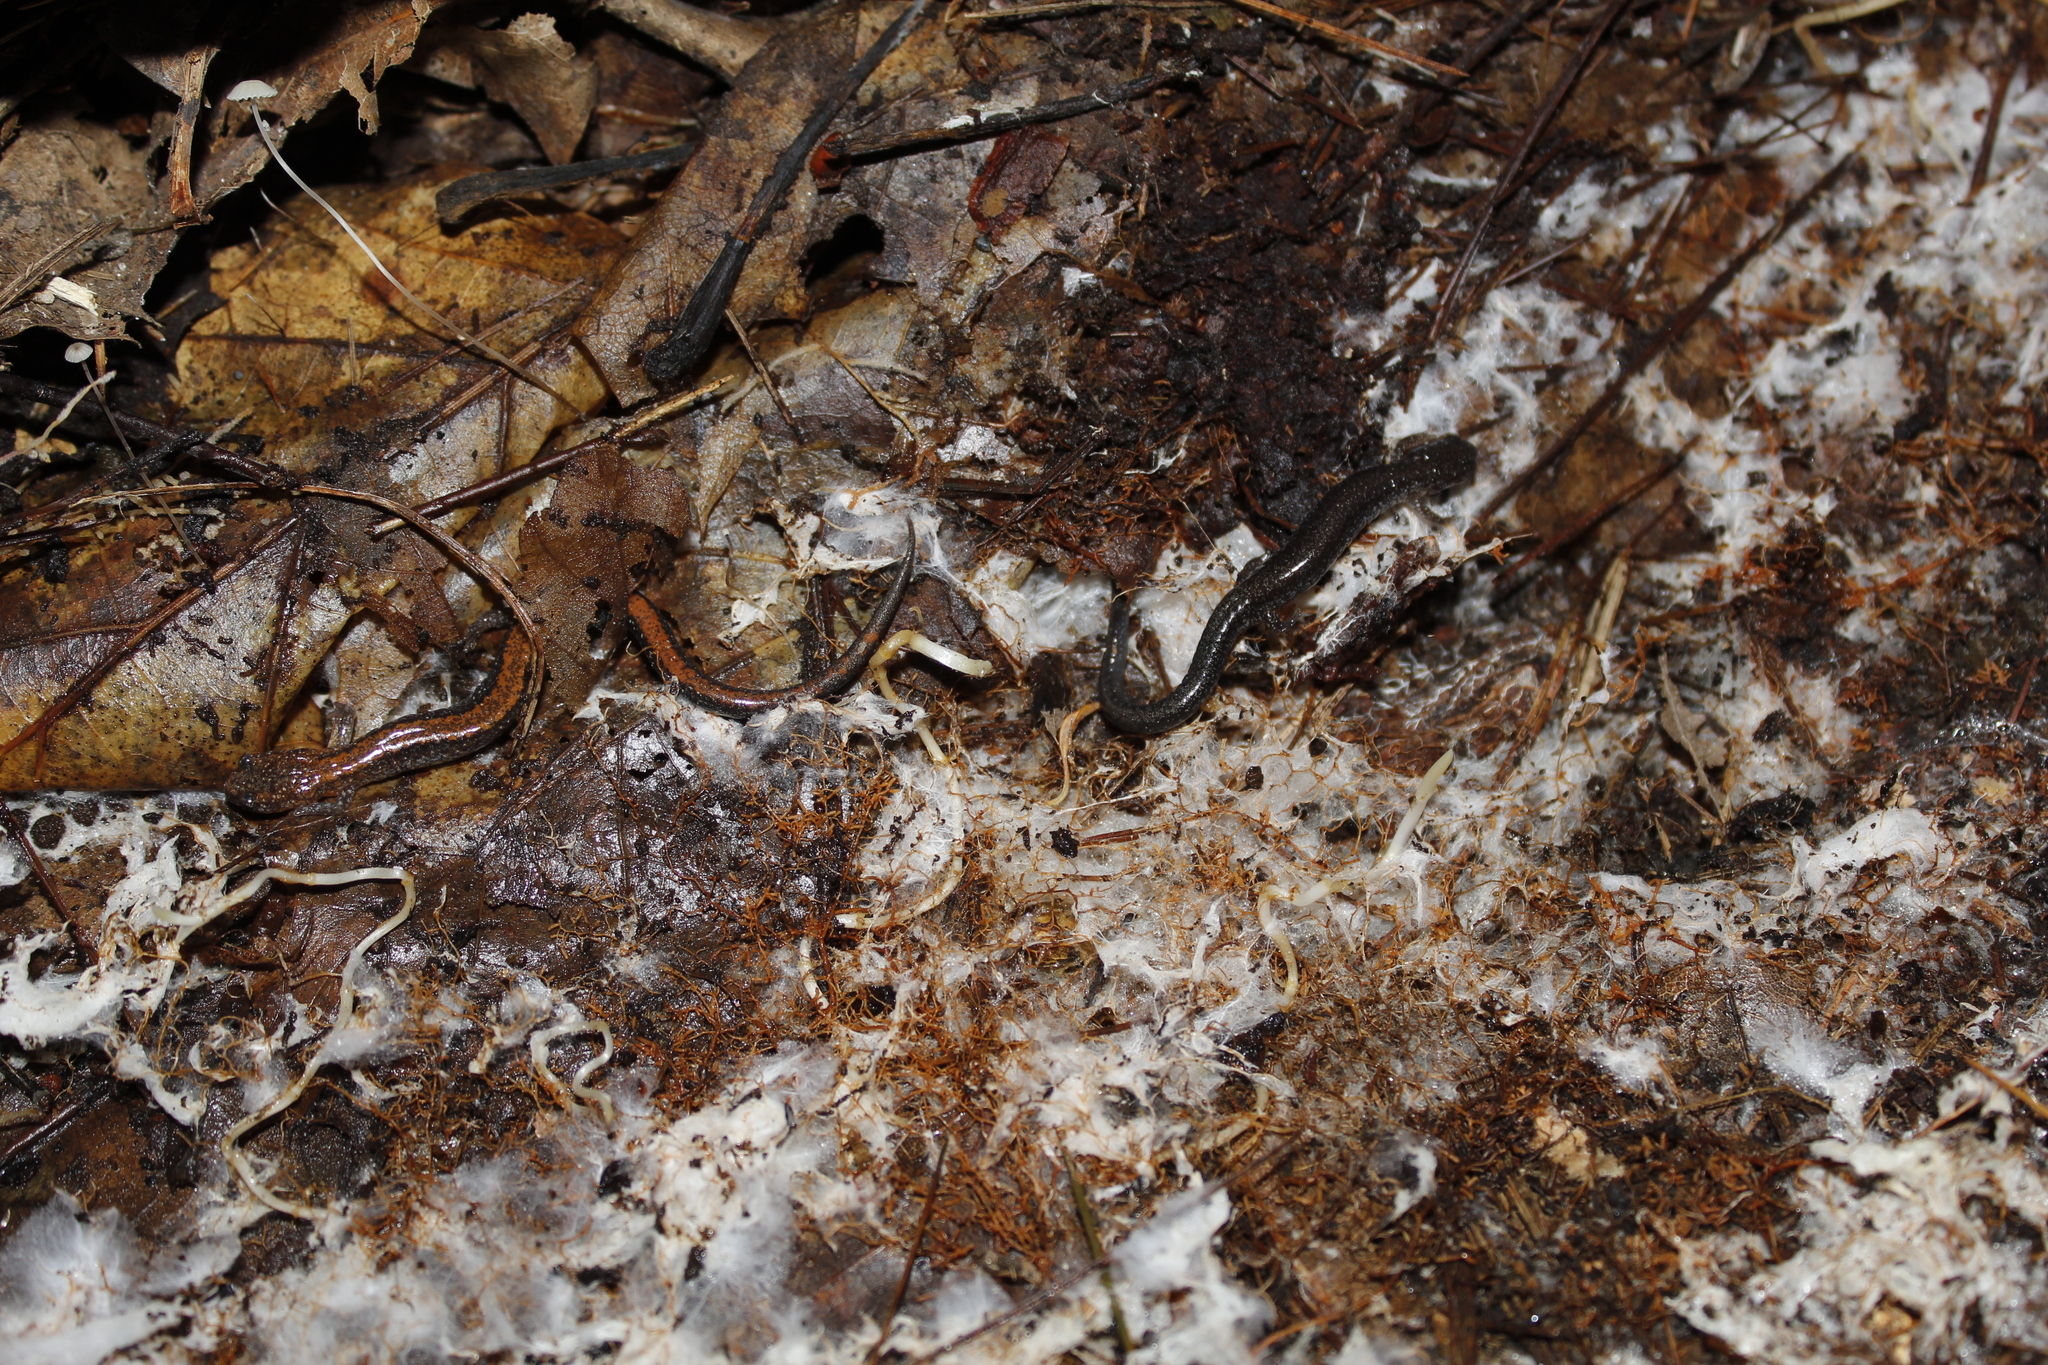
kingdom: Animalia
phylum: Chordata
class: Amphibia
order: Caudata
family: Plethodontidae
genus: Plethodon
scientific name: Plethodon cinereus
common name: Redback salamander
